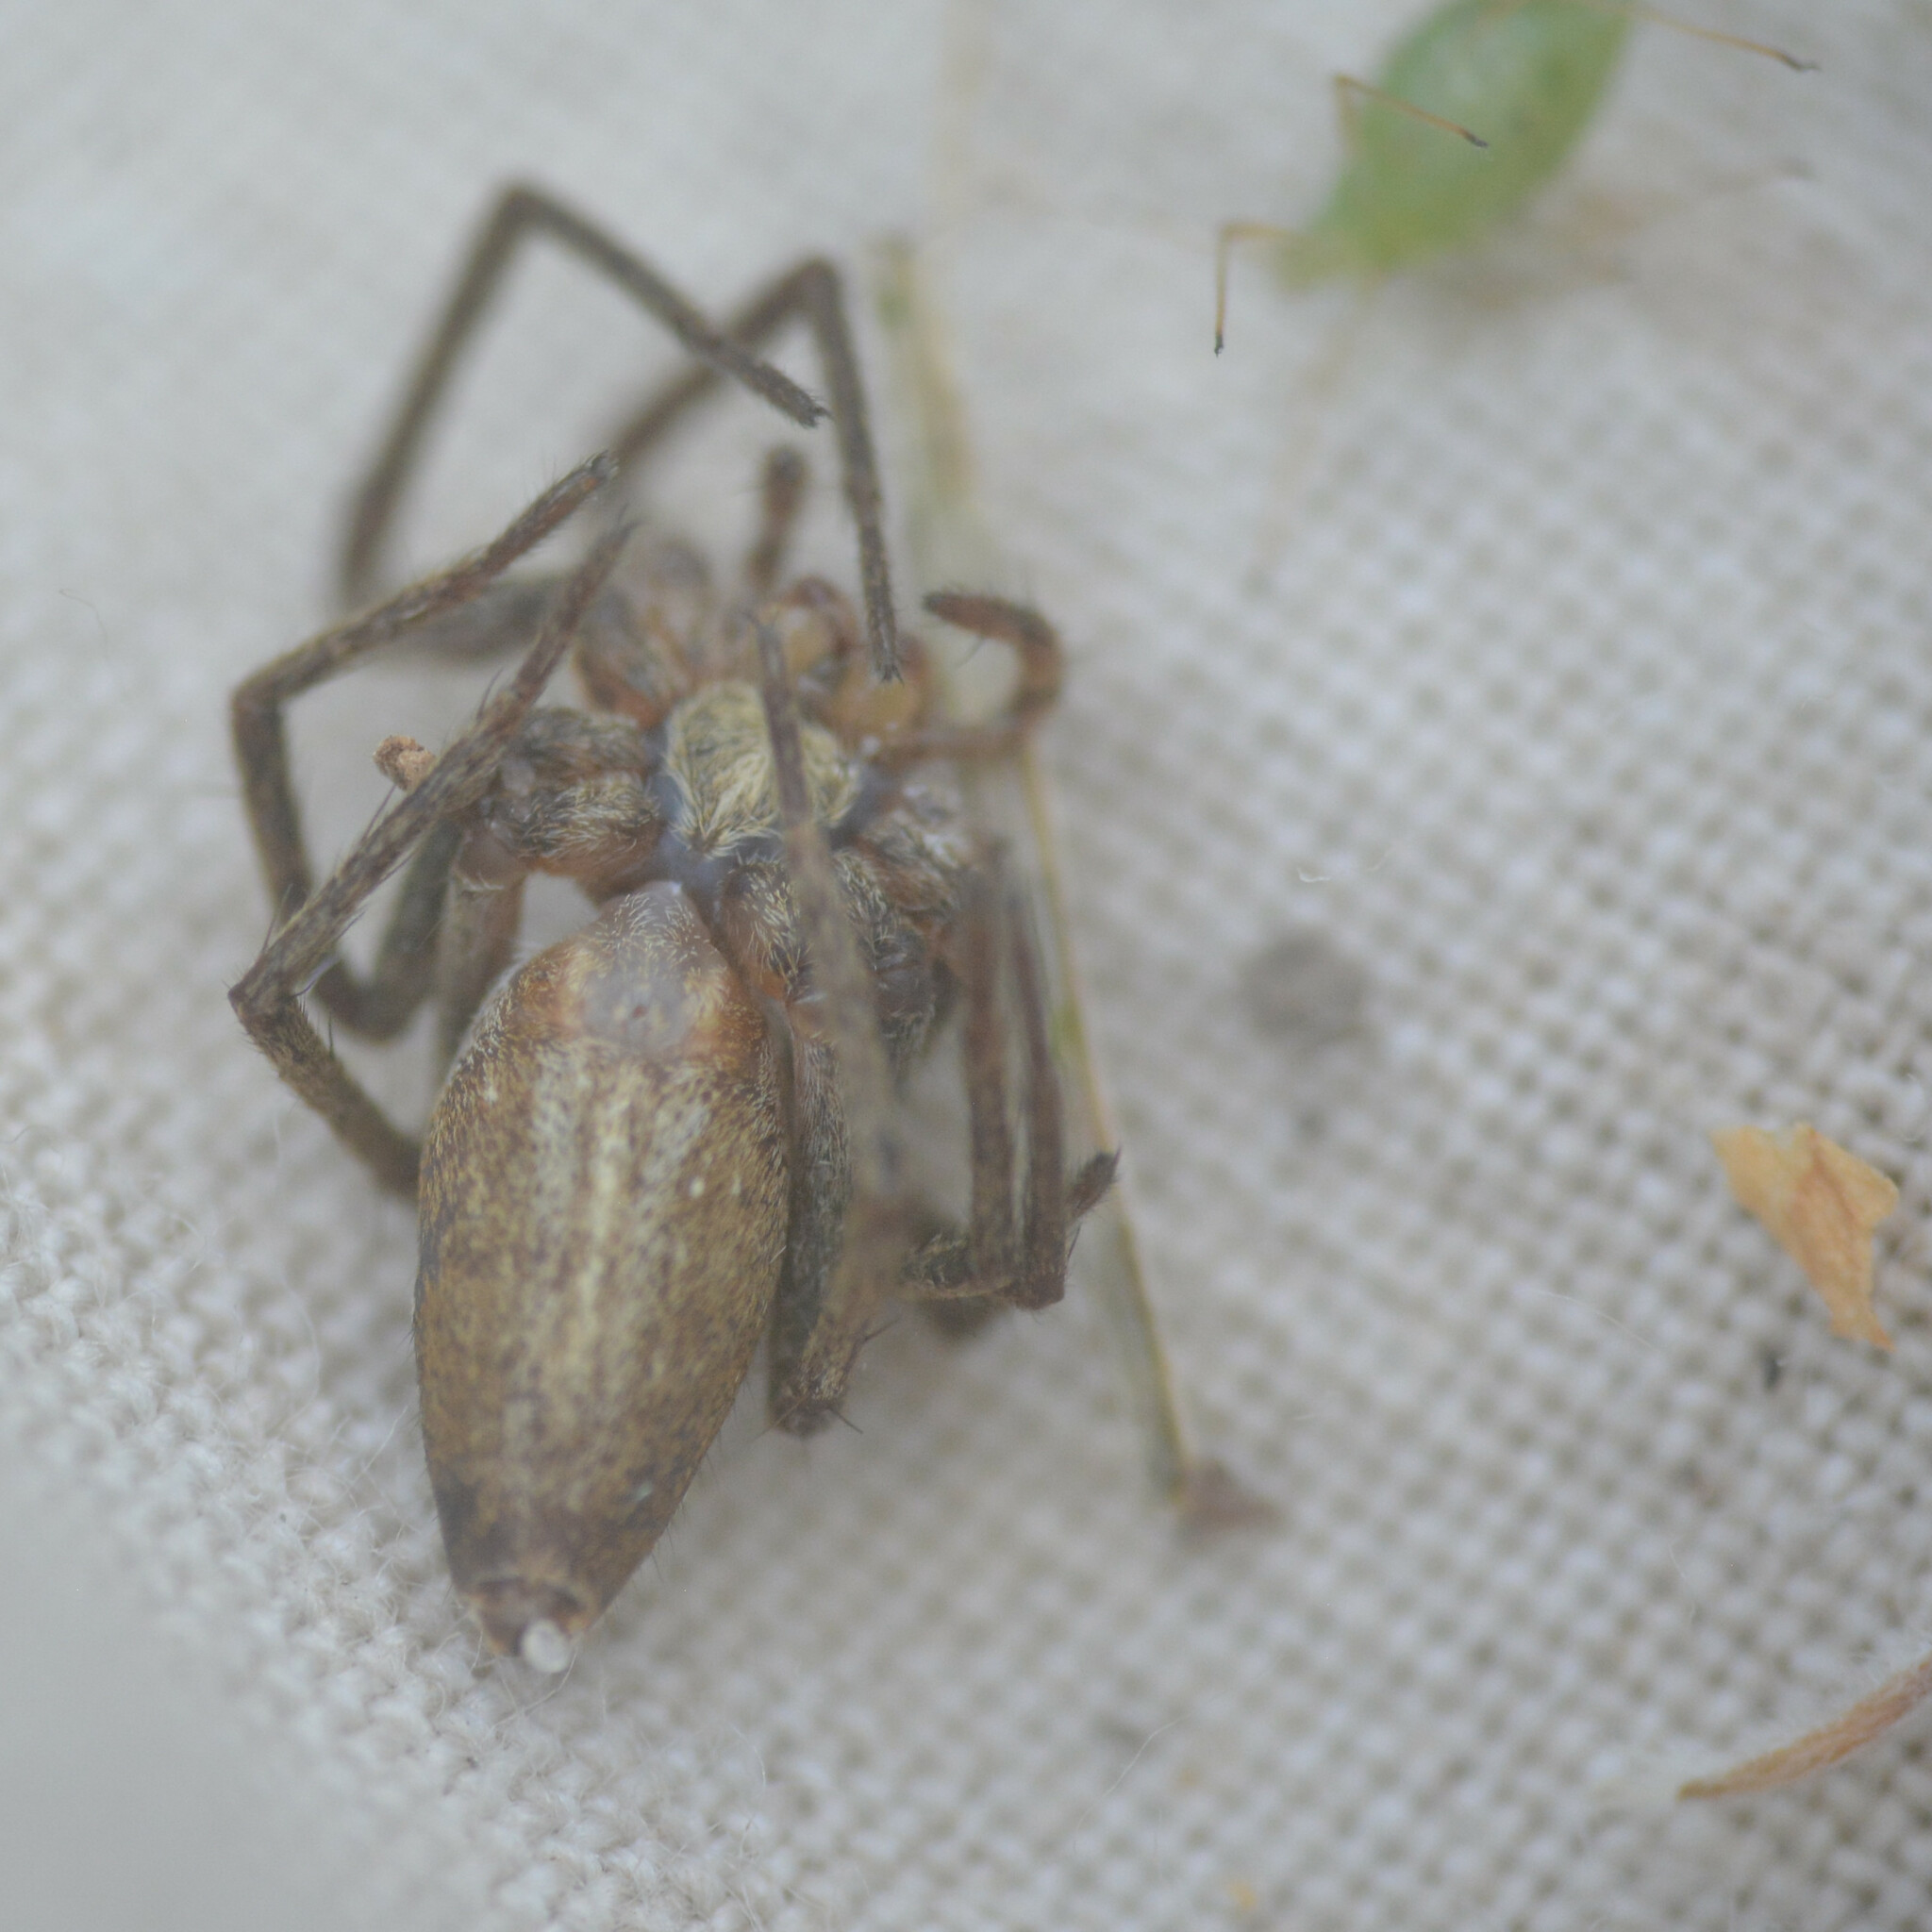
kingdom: Animalia
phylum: Arthropoda
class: Arachnida
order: Araneae
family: Pisauridae
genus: Pisaura
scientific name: Pisaura mirabilis
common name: Tent spider
